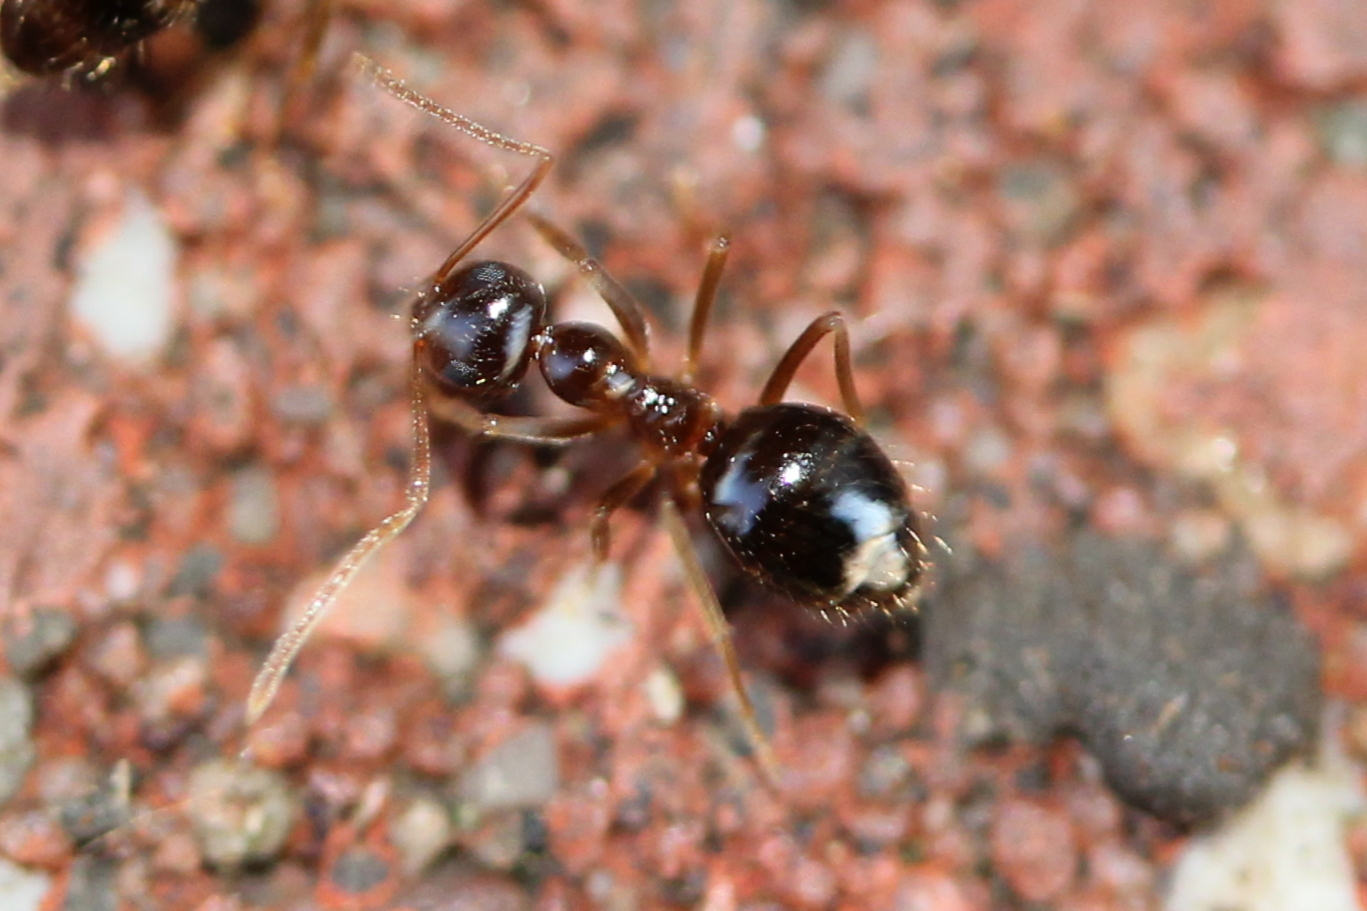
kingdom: Animalia
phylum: Arthropoda
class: Insecta
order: Hymenoptera
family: Formicidae
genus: Prenolepis
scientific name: Prenolepis imparis
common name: Small honey ant
